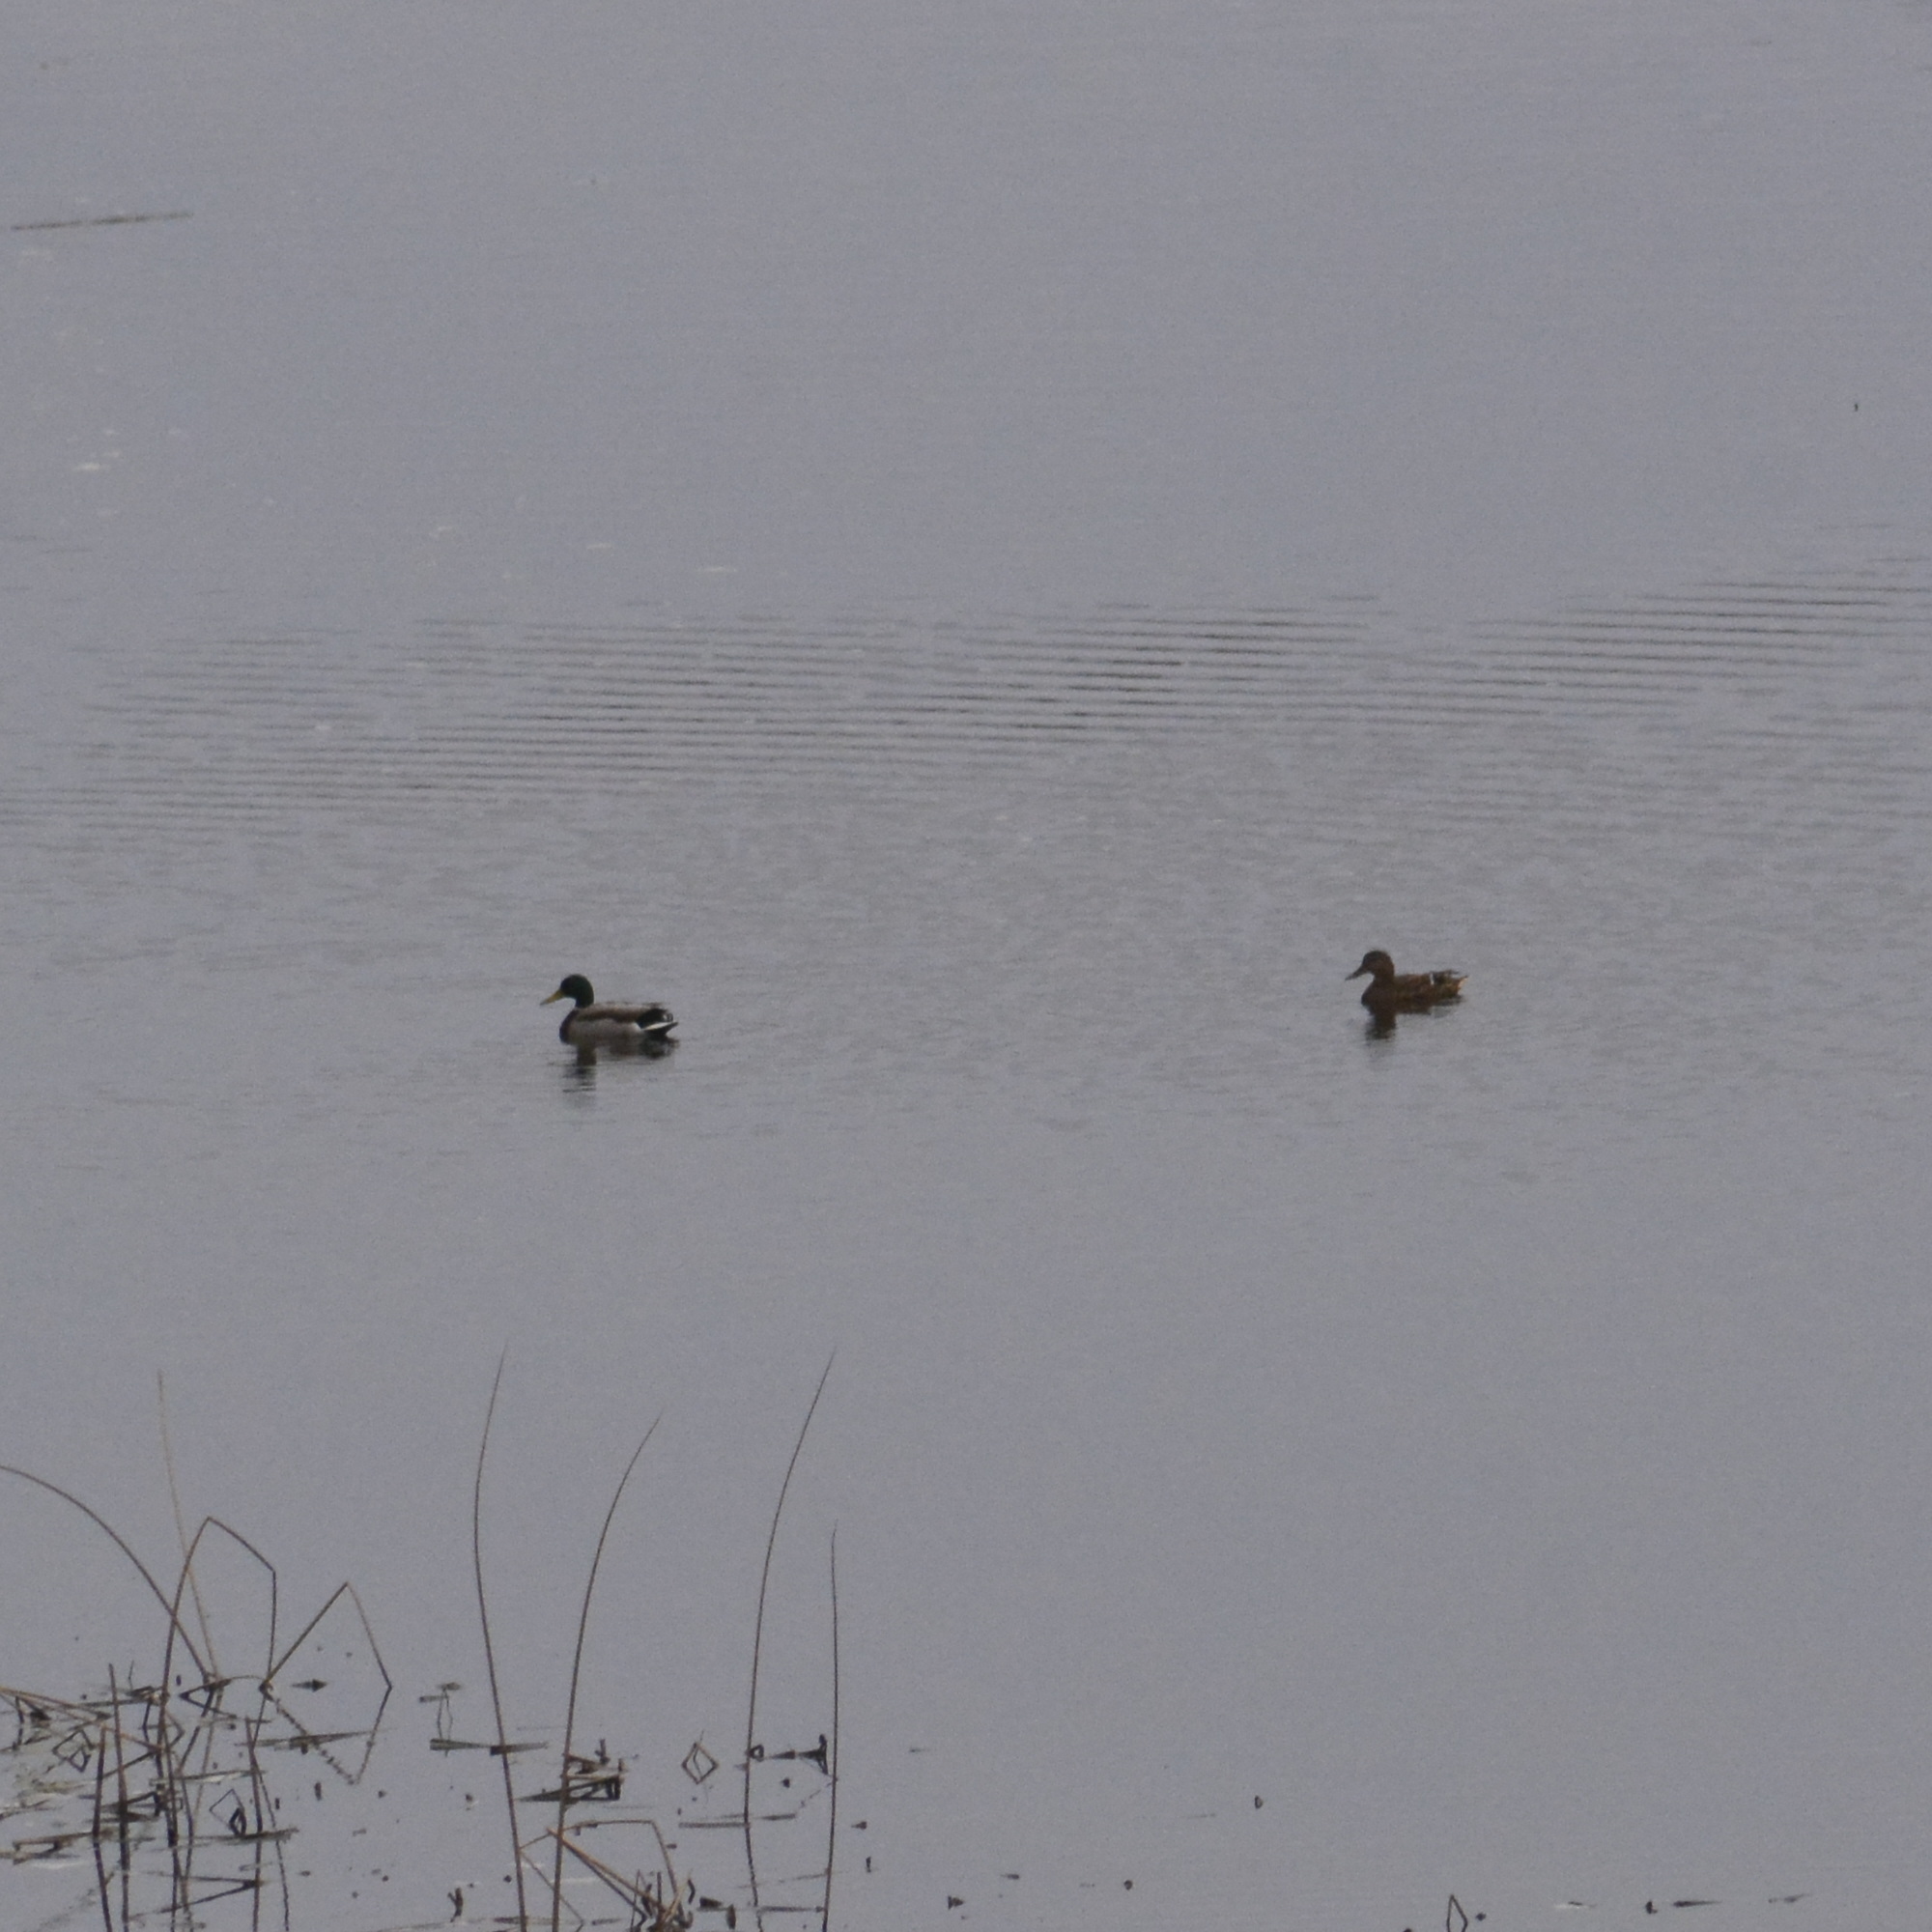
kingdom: Animalia
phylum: Chordata
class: Aves
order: Anseriformes
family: Anatidae
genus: Anas
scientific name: Anas platyrhynchos
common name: Mallard
